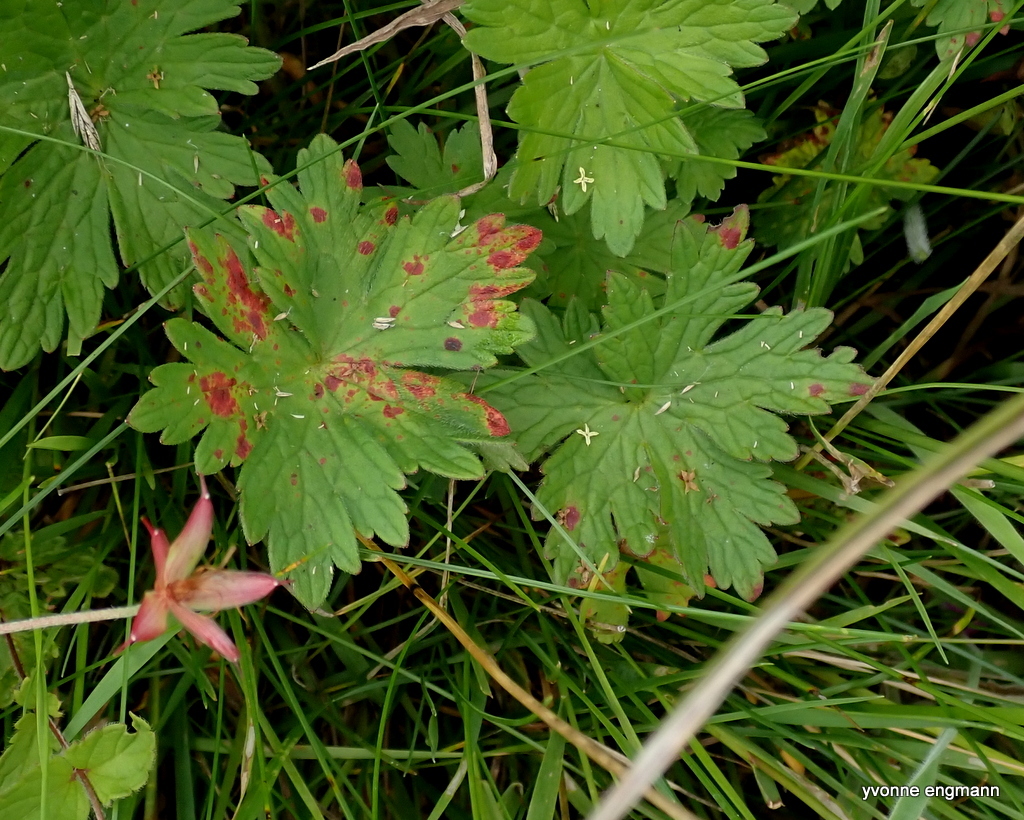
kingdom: Fungi
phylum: Basidiomycota
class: Pucciniomycetes
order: Pucciniales
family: Pucciniaceae
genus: Uromyces
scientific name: Uromyces geranii
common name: Geranium rust
